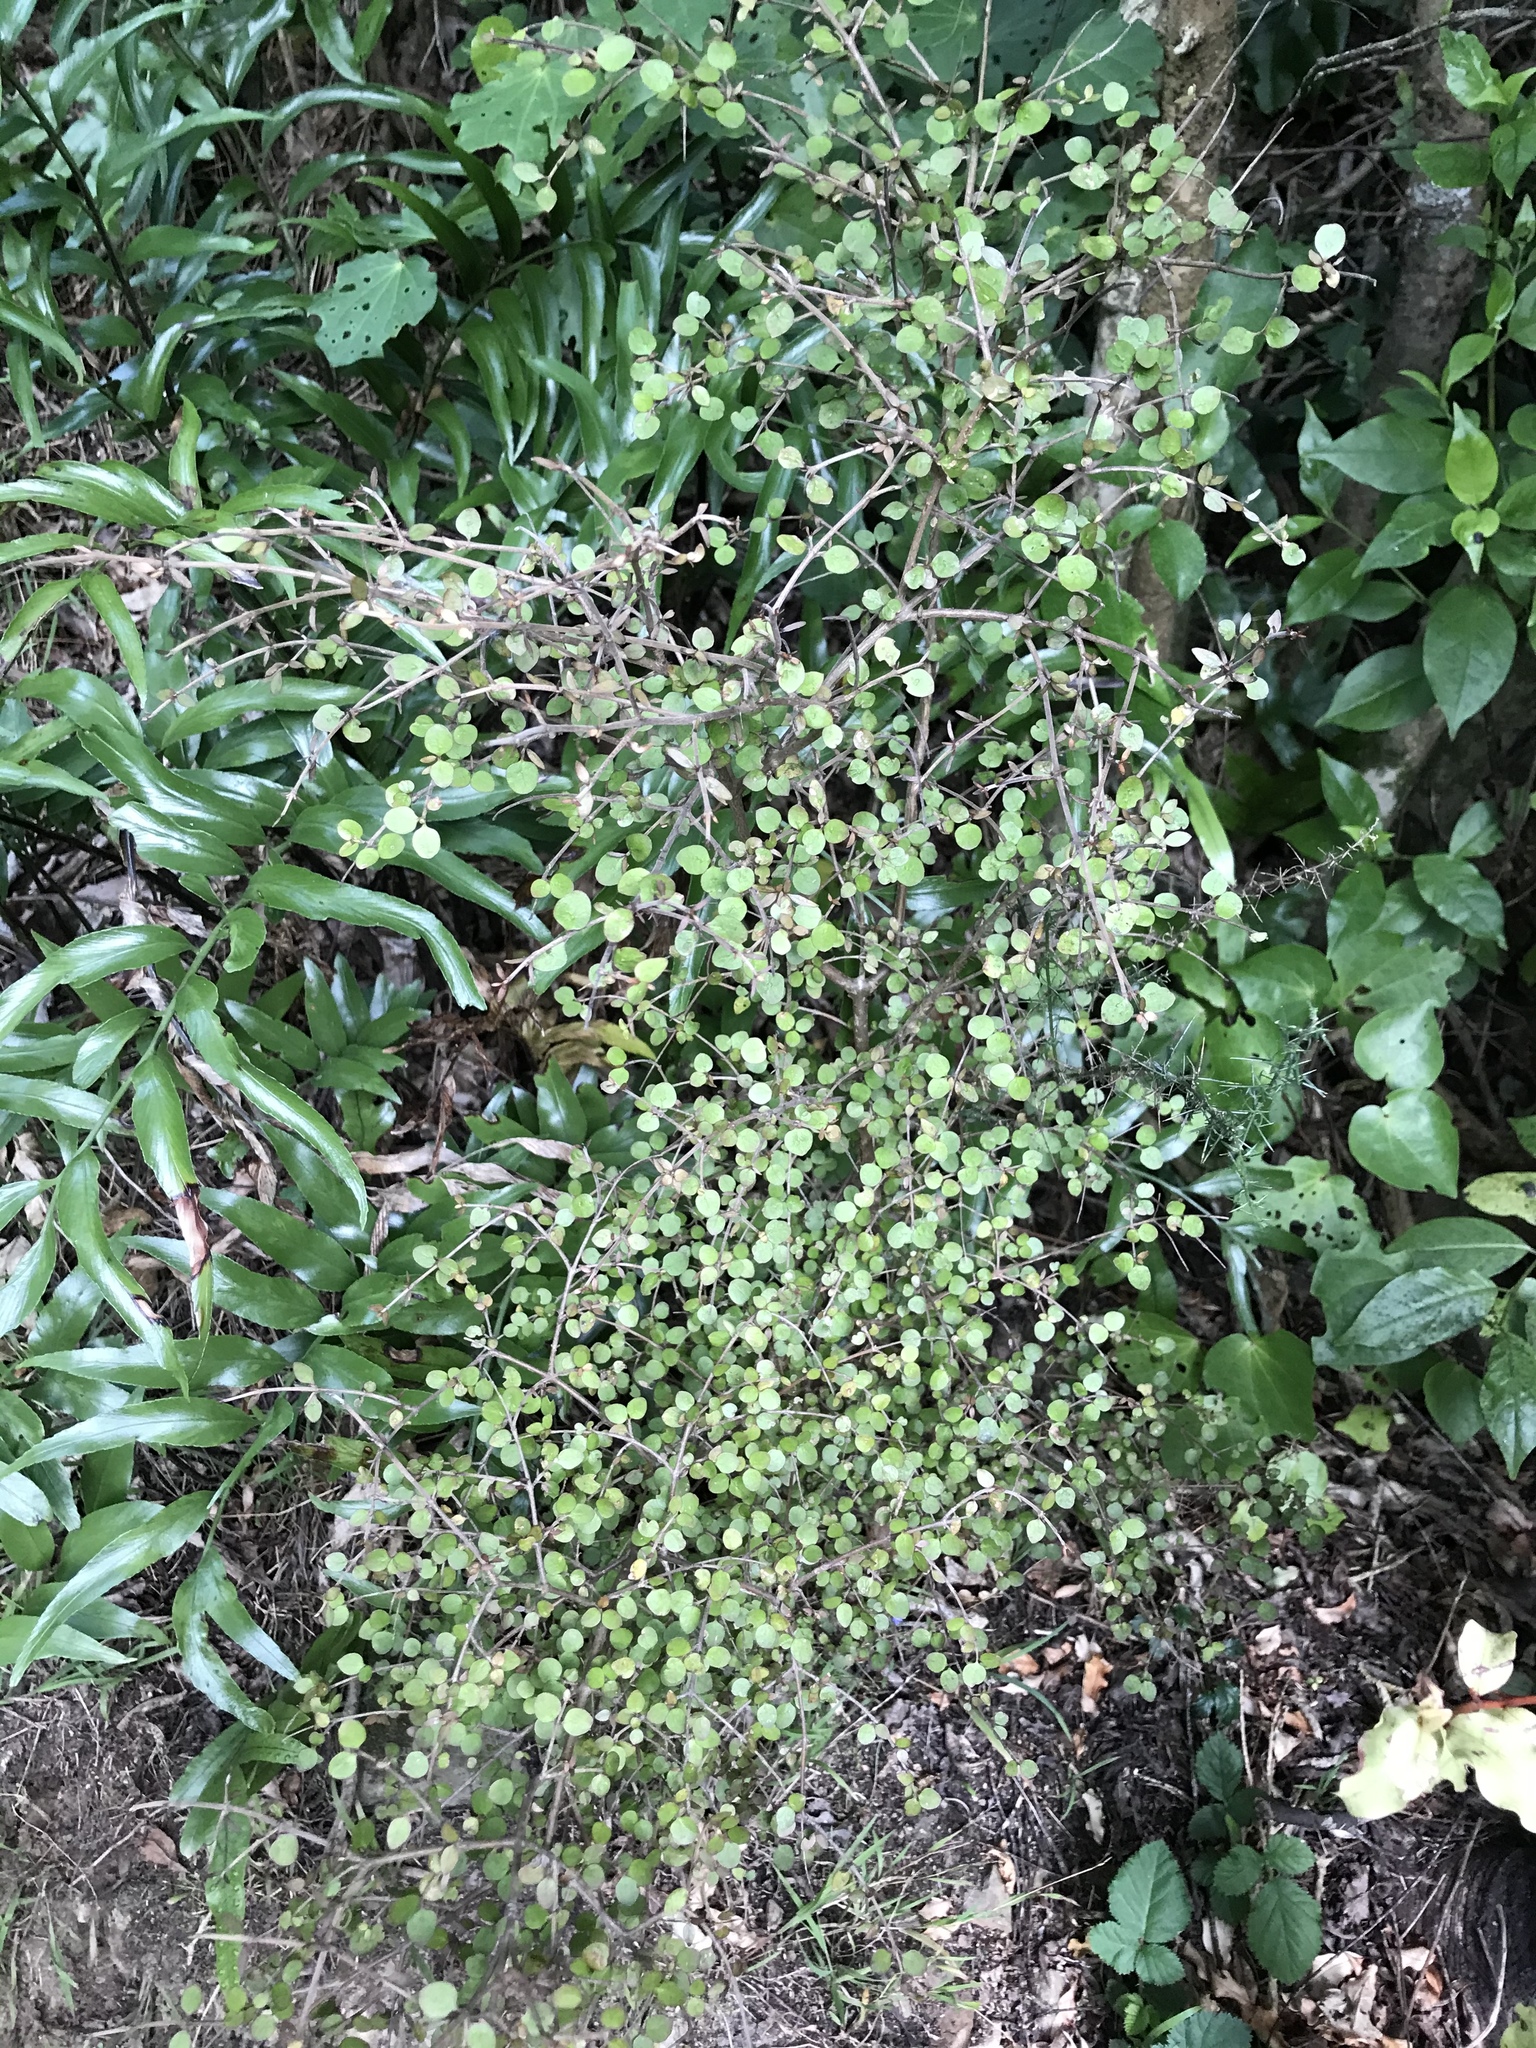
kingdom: Plantae
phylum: Tracheophyta
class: Magnoliopsida
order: Gentianales
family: Rubiaceae
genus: Coprosma
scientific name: Coprosma rhamnoides
